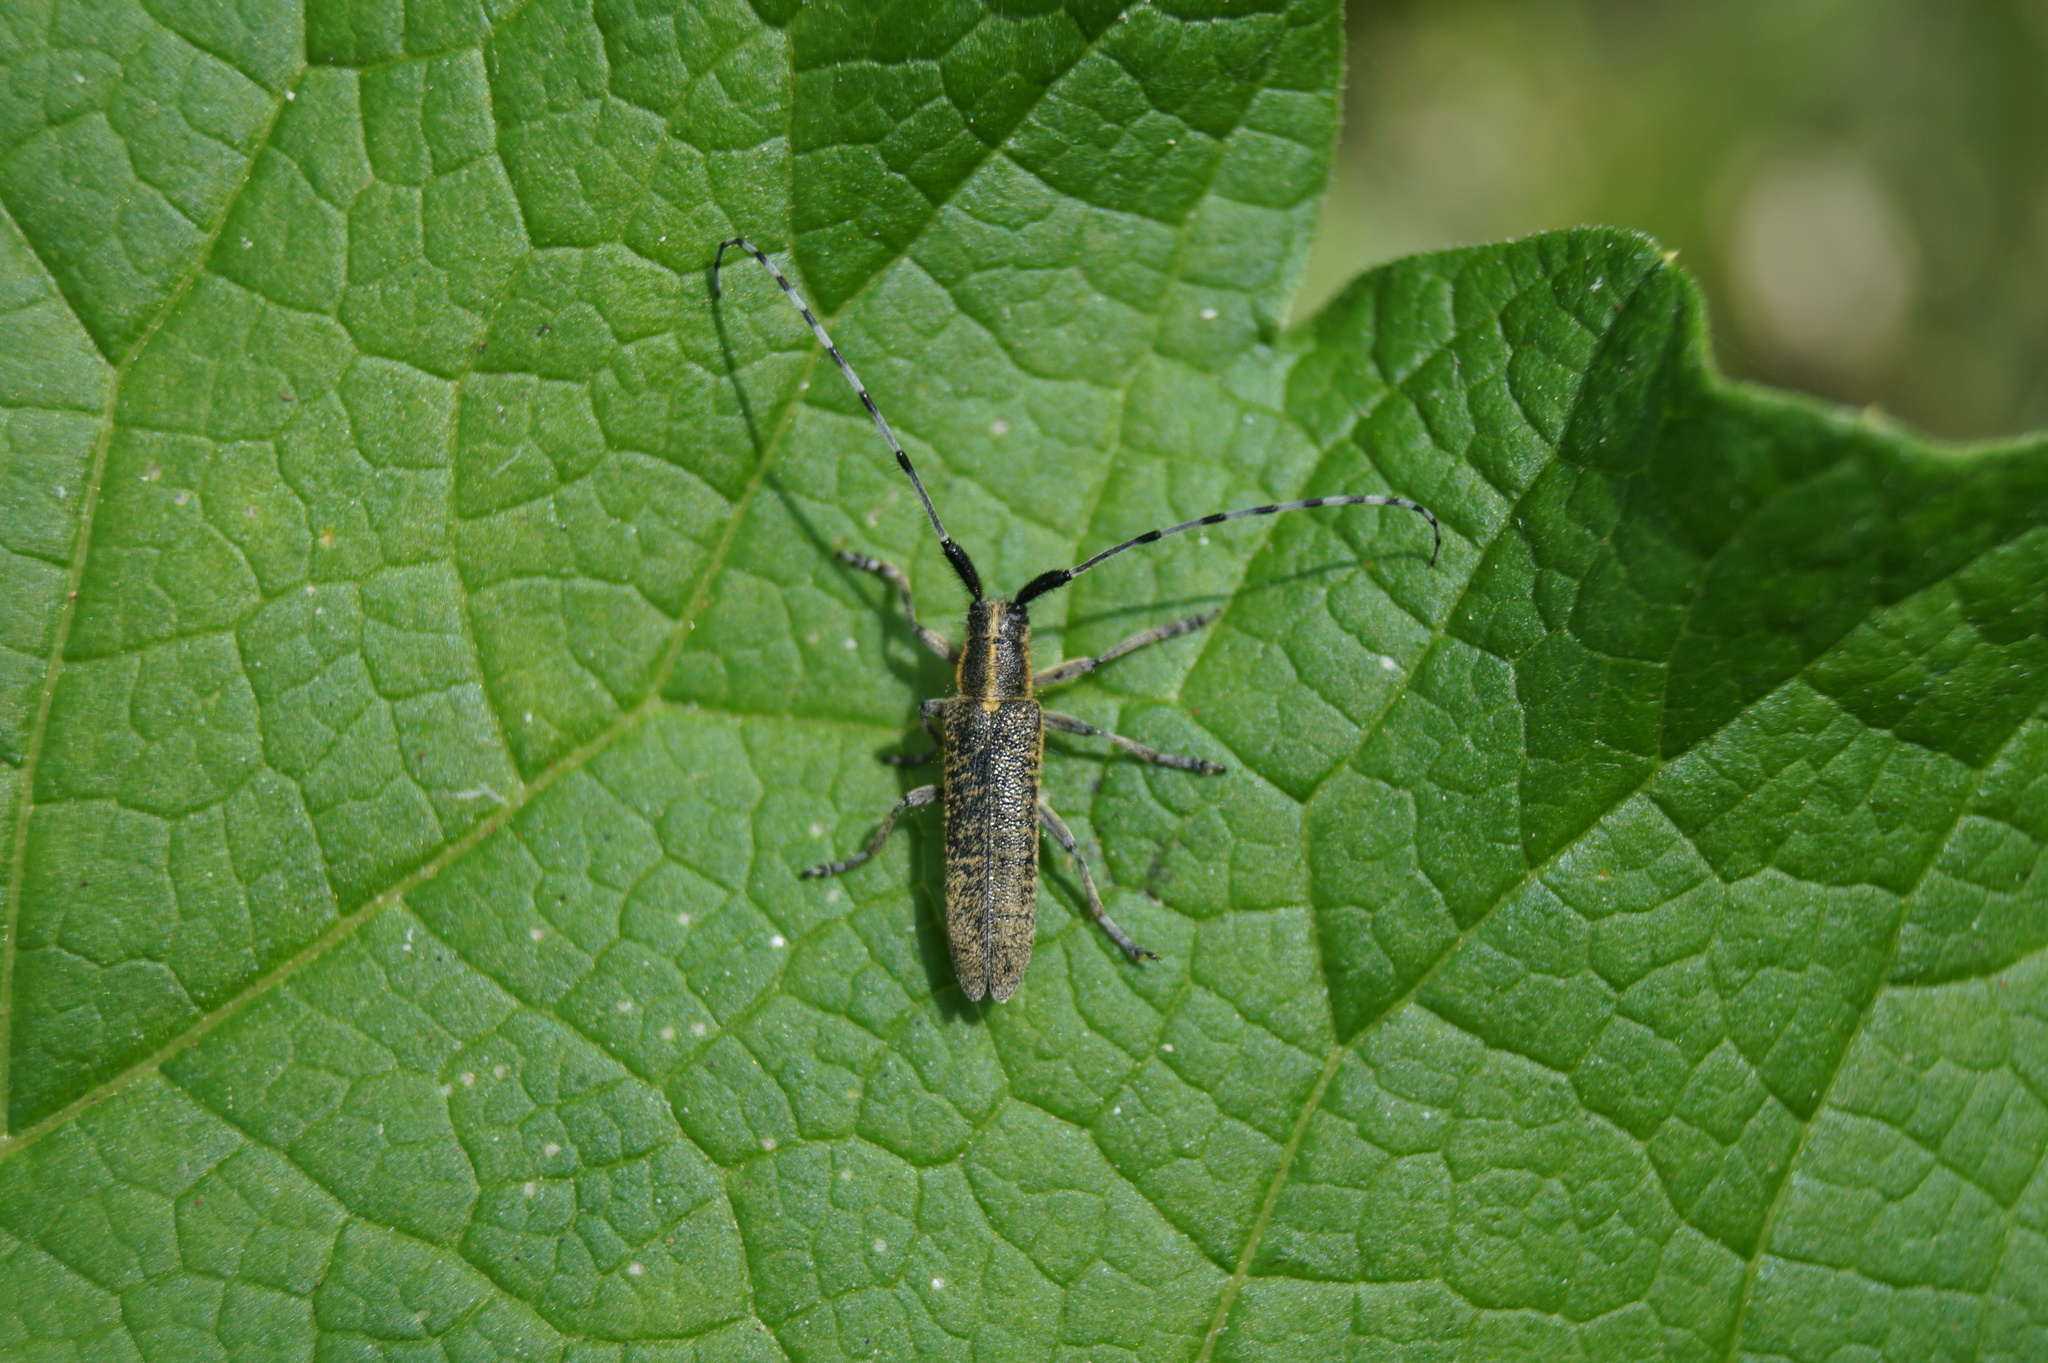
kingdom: Animalia
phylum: Arthropoda
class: Insecta
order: Coleoptera
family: Cerambycidae
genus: Agapanthia
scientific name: Agapanthia villosoviridescens
